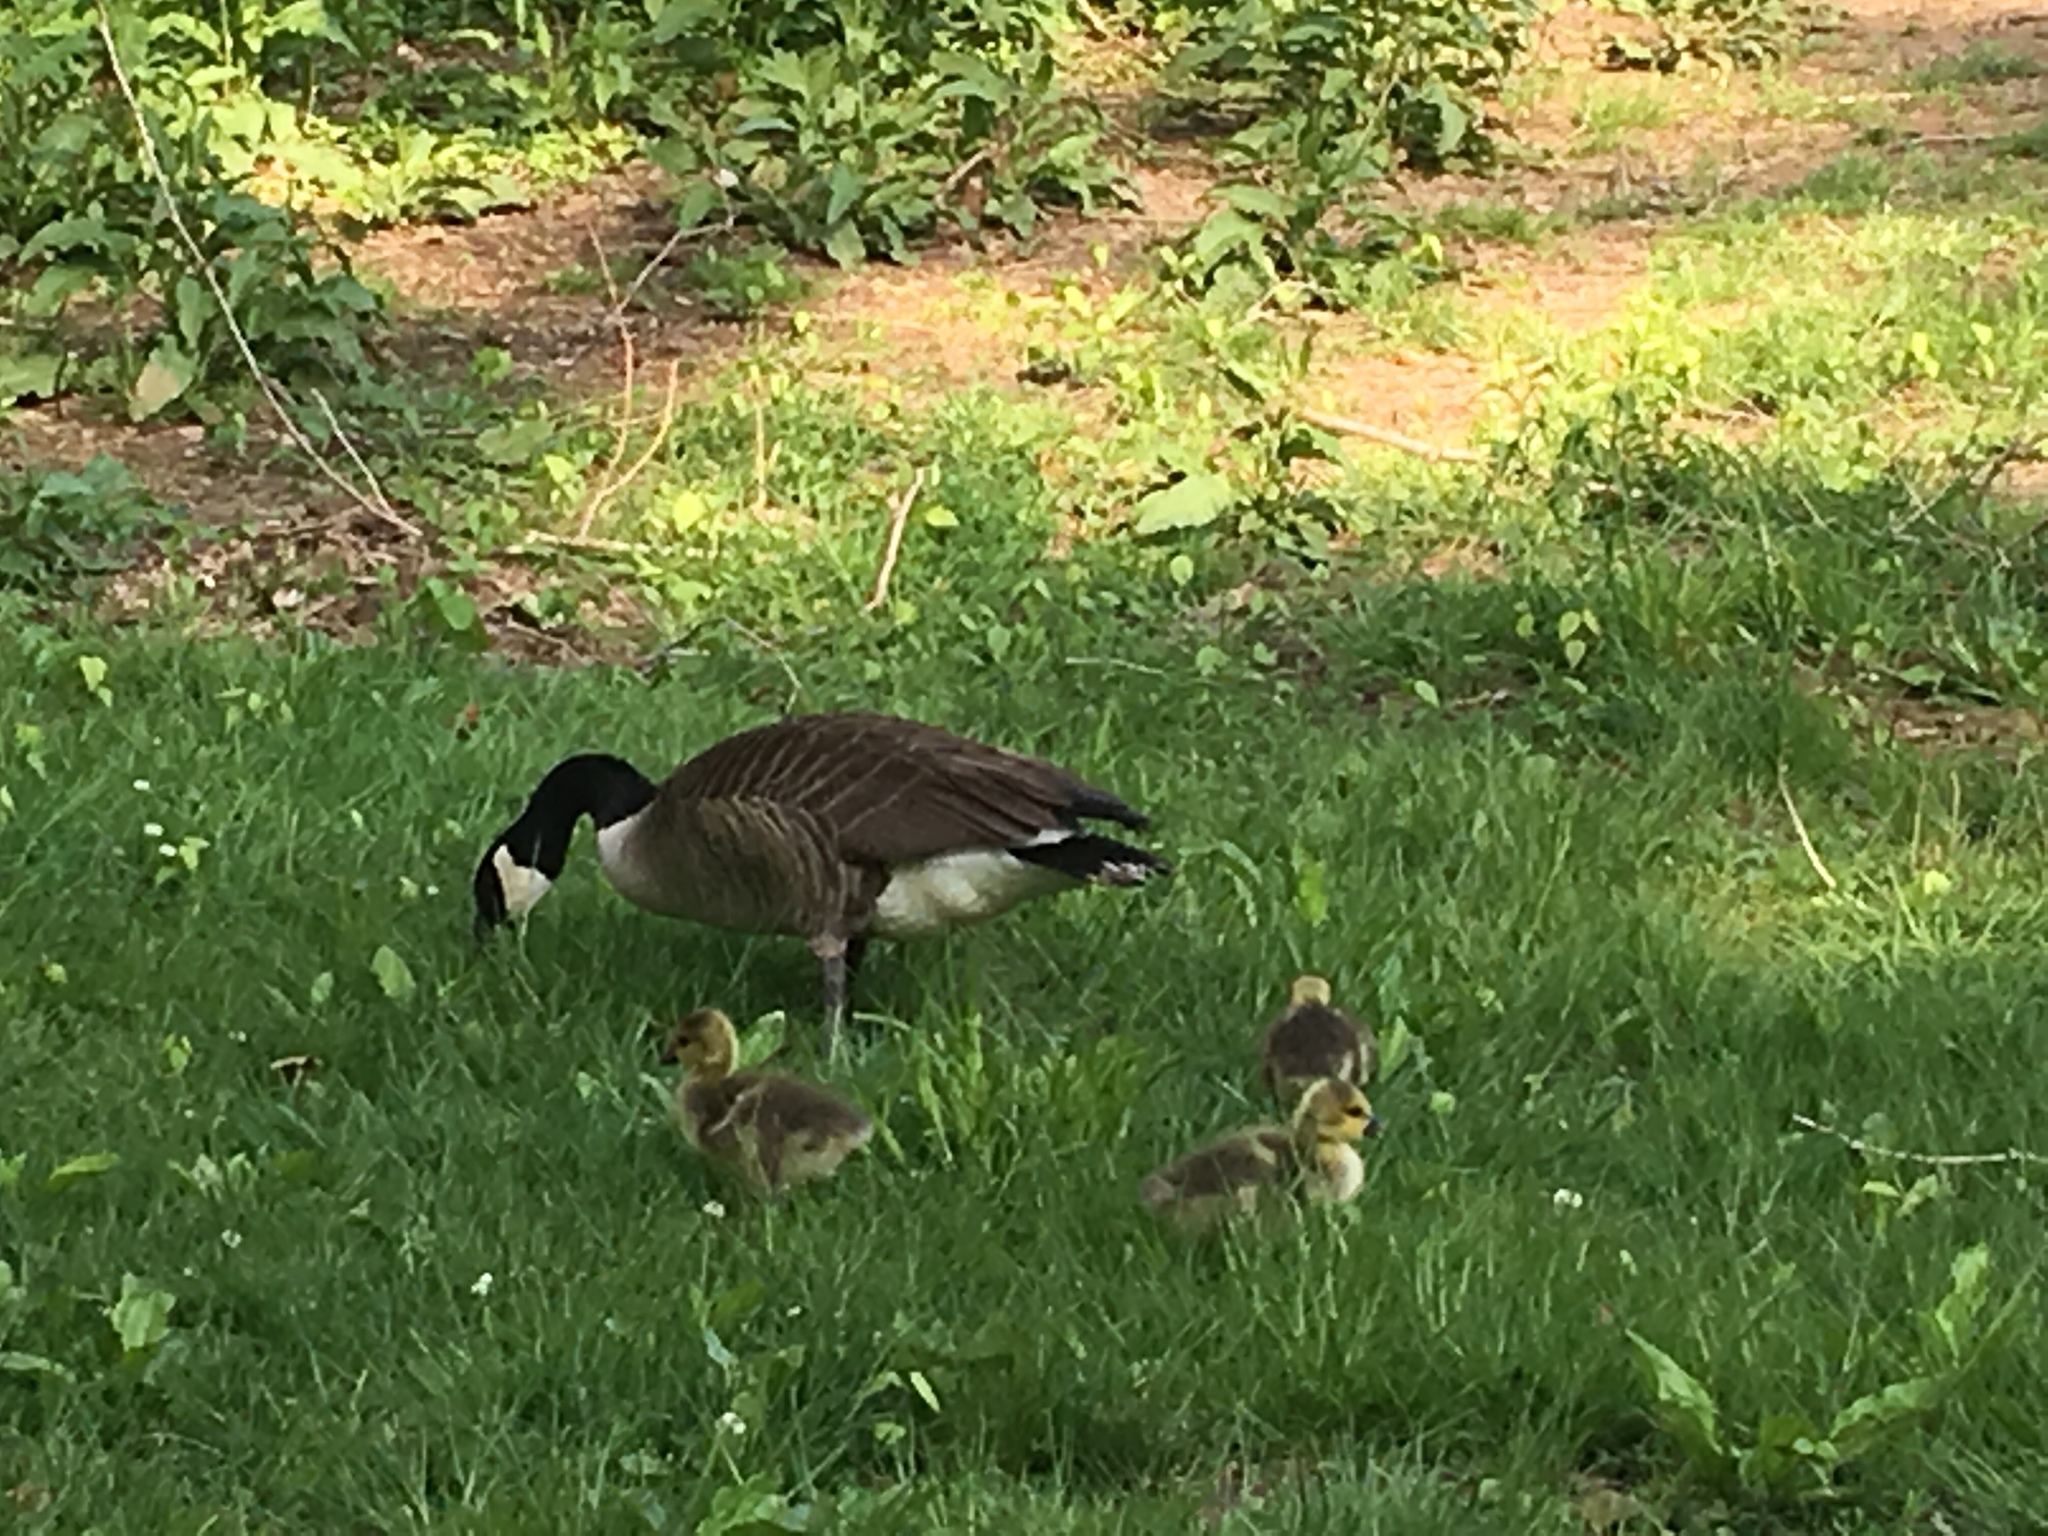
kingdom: Animalia
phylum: Chordata
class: Aves
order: Anseriformes
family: Anatidae
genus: Branta
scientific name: Branta canadensis
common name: Canada goose
